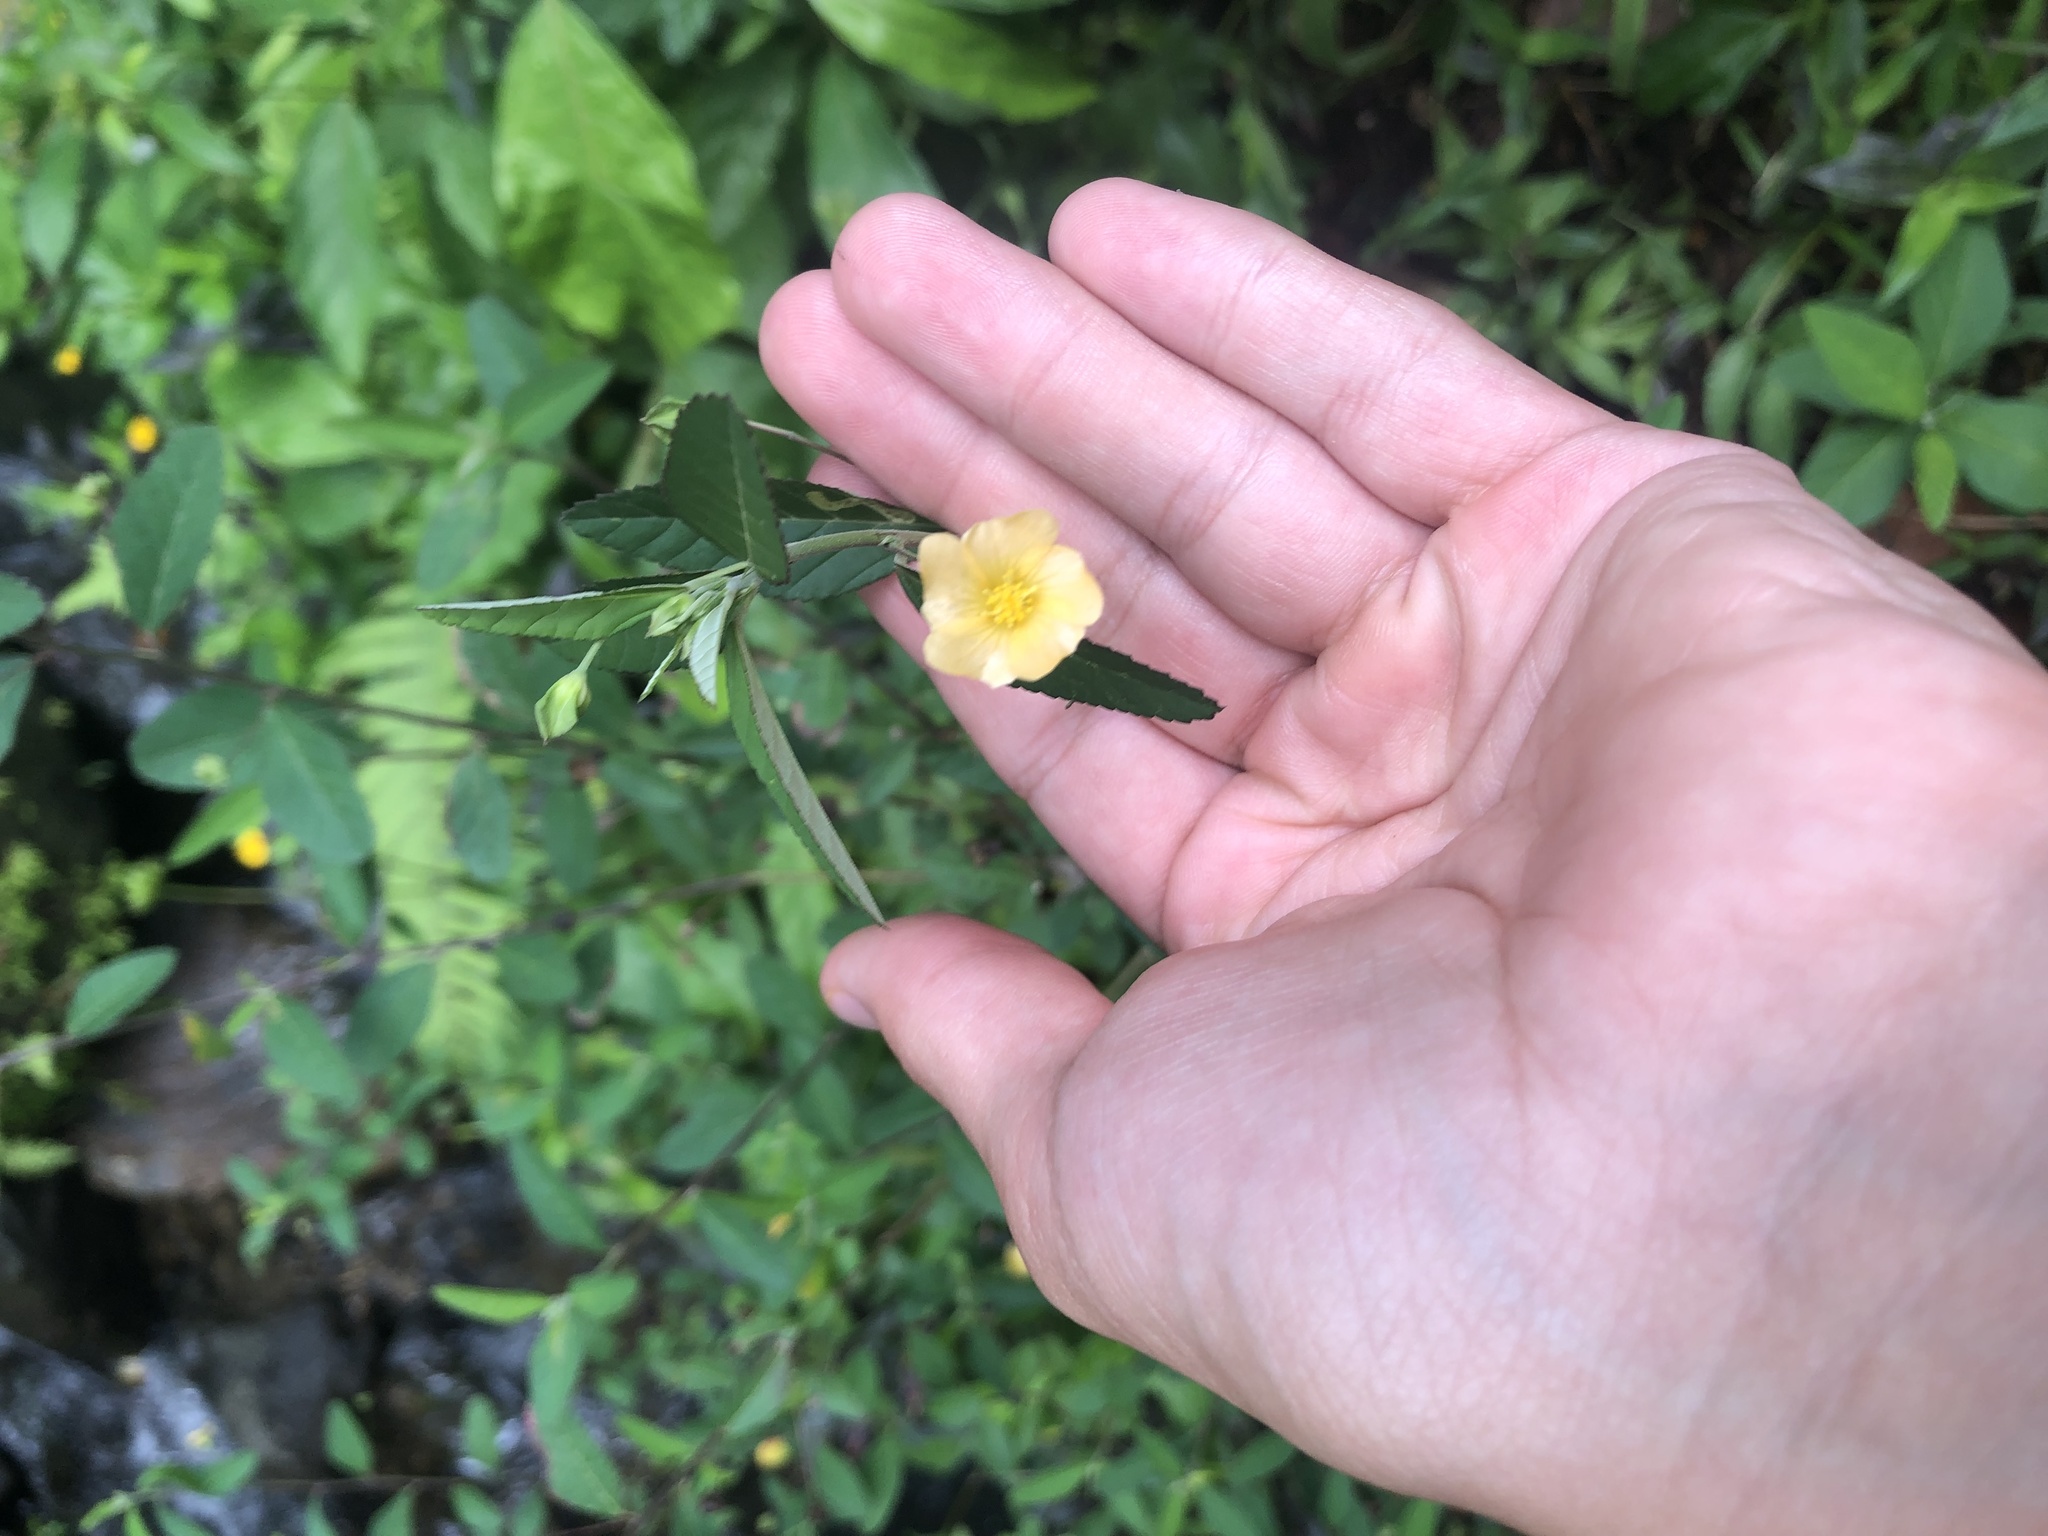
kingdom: Plantae
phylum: Tracheophyta
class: Magnoliopsida
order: Malvales
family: Malvaceae
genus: Sida
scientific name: Sida rhombifolia
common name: Queensland-hemp
